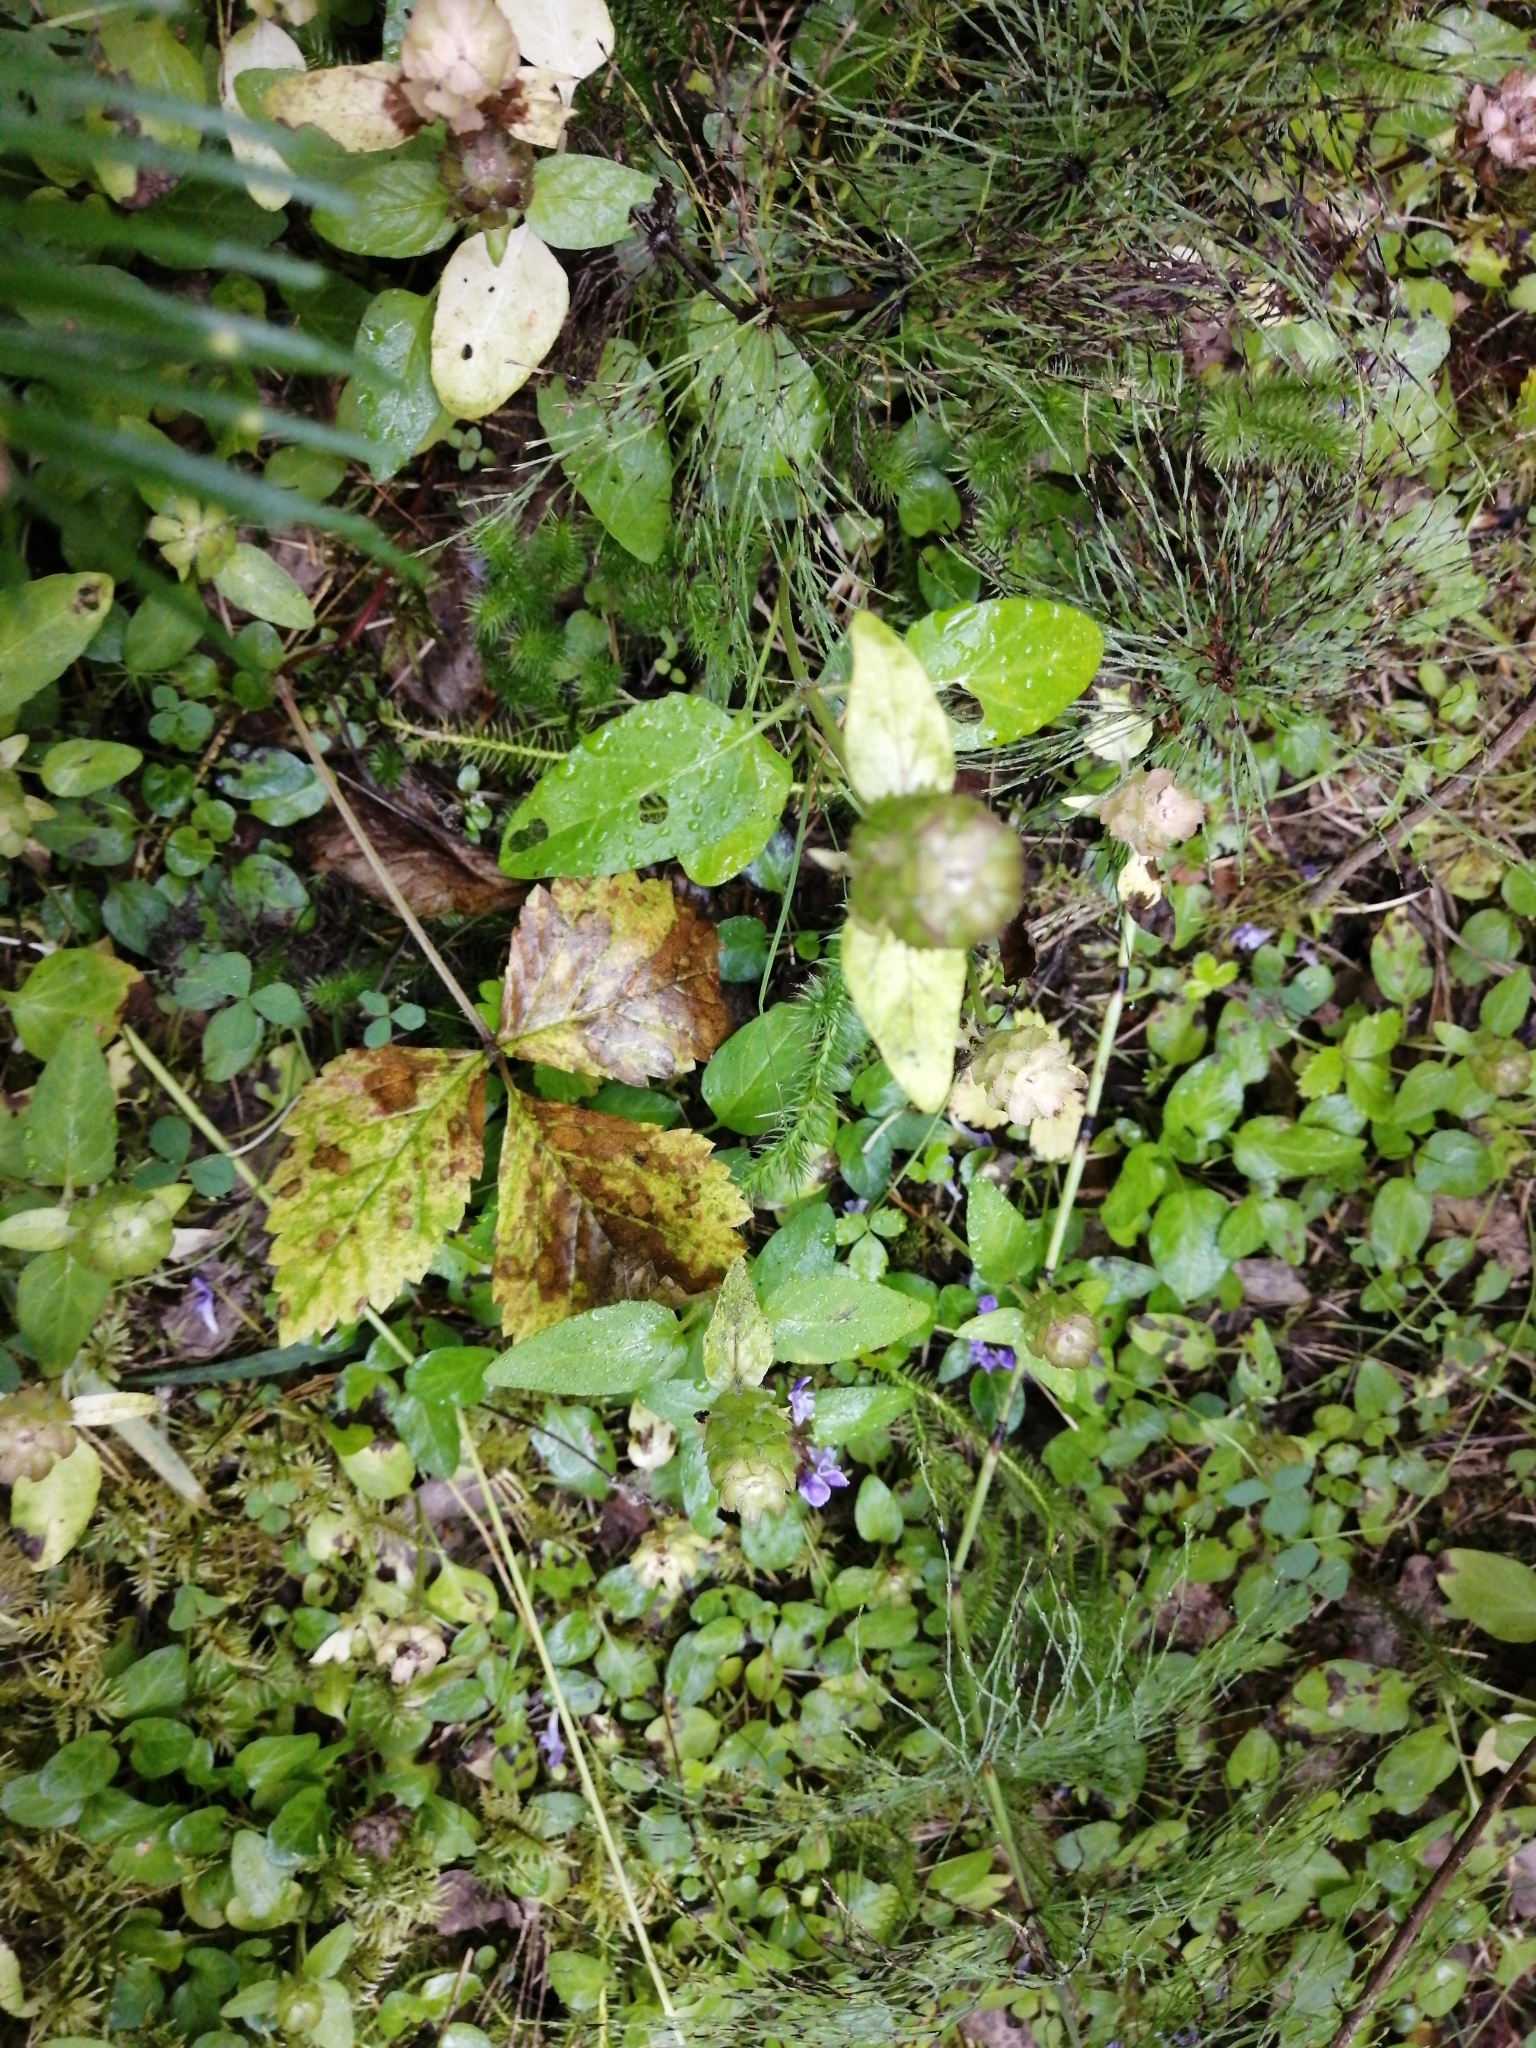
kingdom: Plantae
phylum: Tracheophyta
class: Magnoliopsida
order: Lamiales
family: Lamiaceae
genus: Prunella
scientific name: Prunella vulgaris
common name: Heal-all
